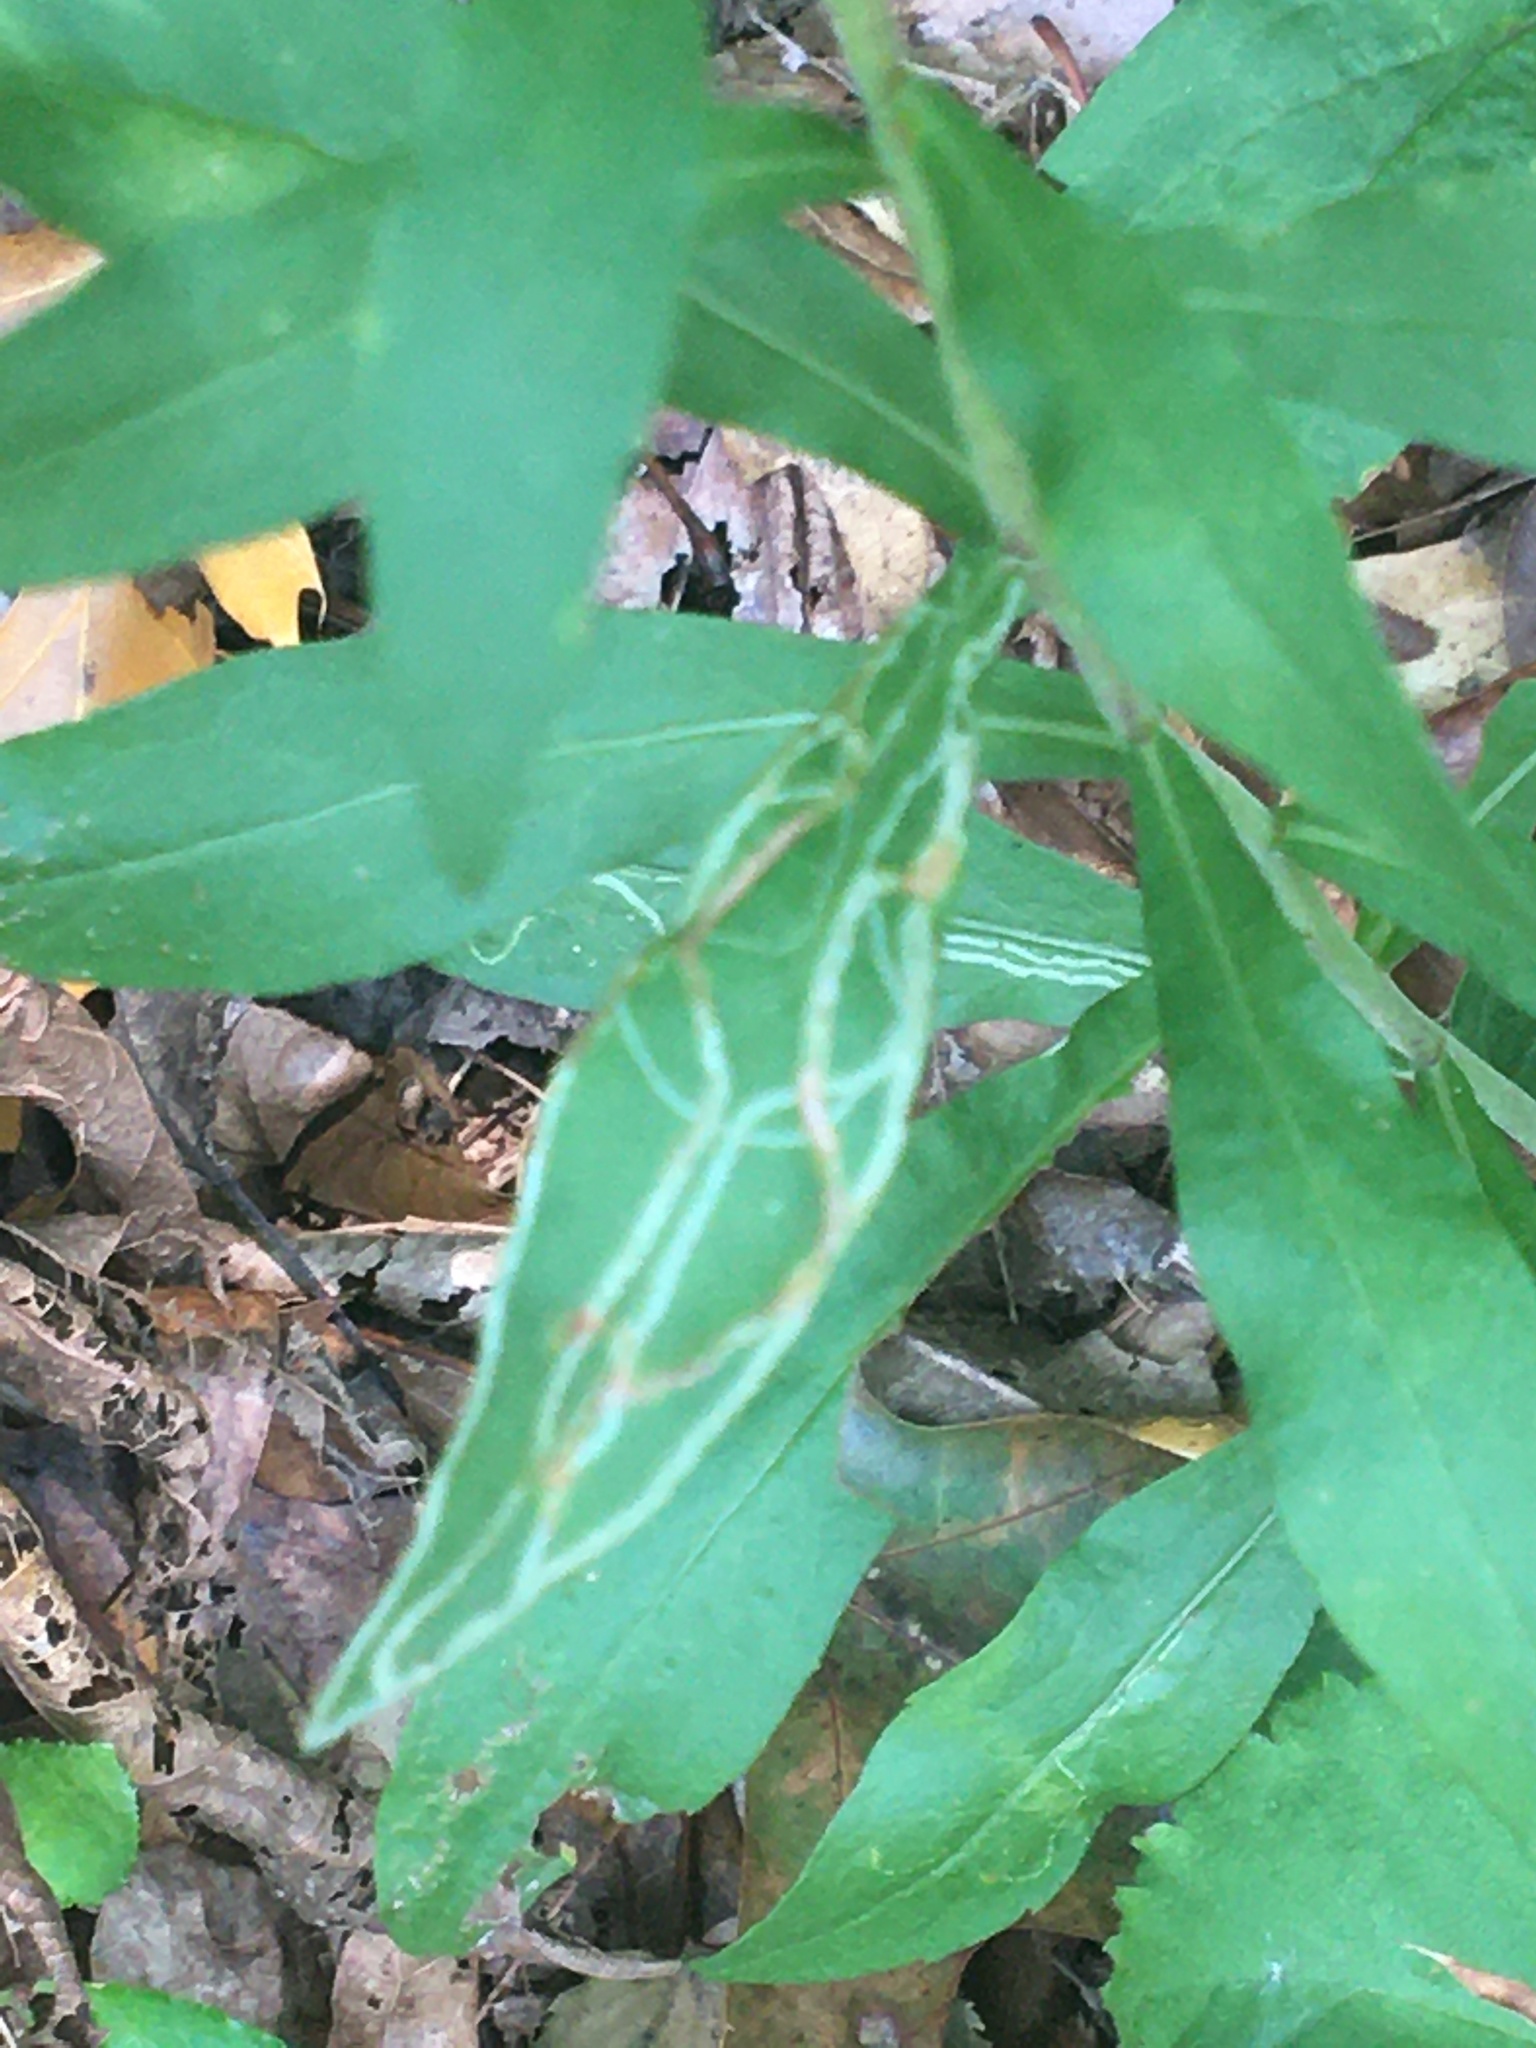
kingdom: Animalia
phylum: Arthropoda
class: Insecta
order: Diptera
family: Agromyzidae
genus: Ophiomyia
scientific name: Ophiomyia maura
